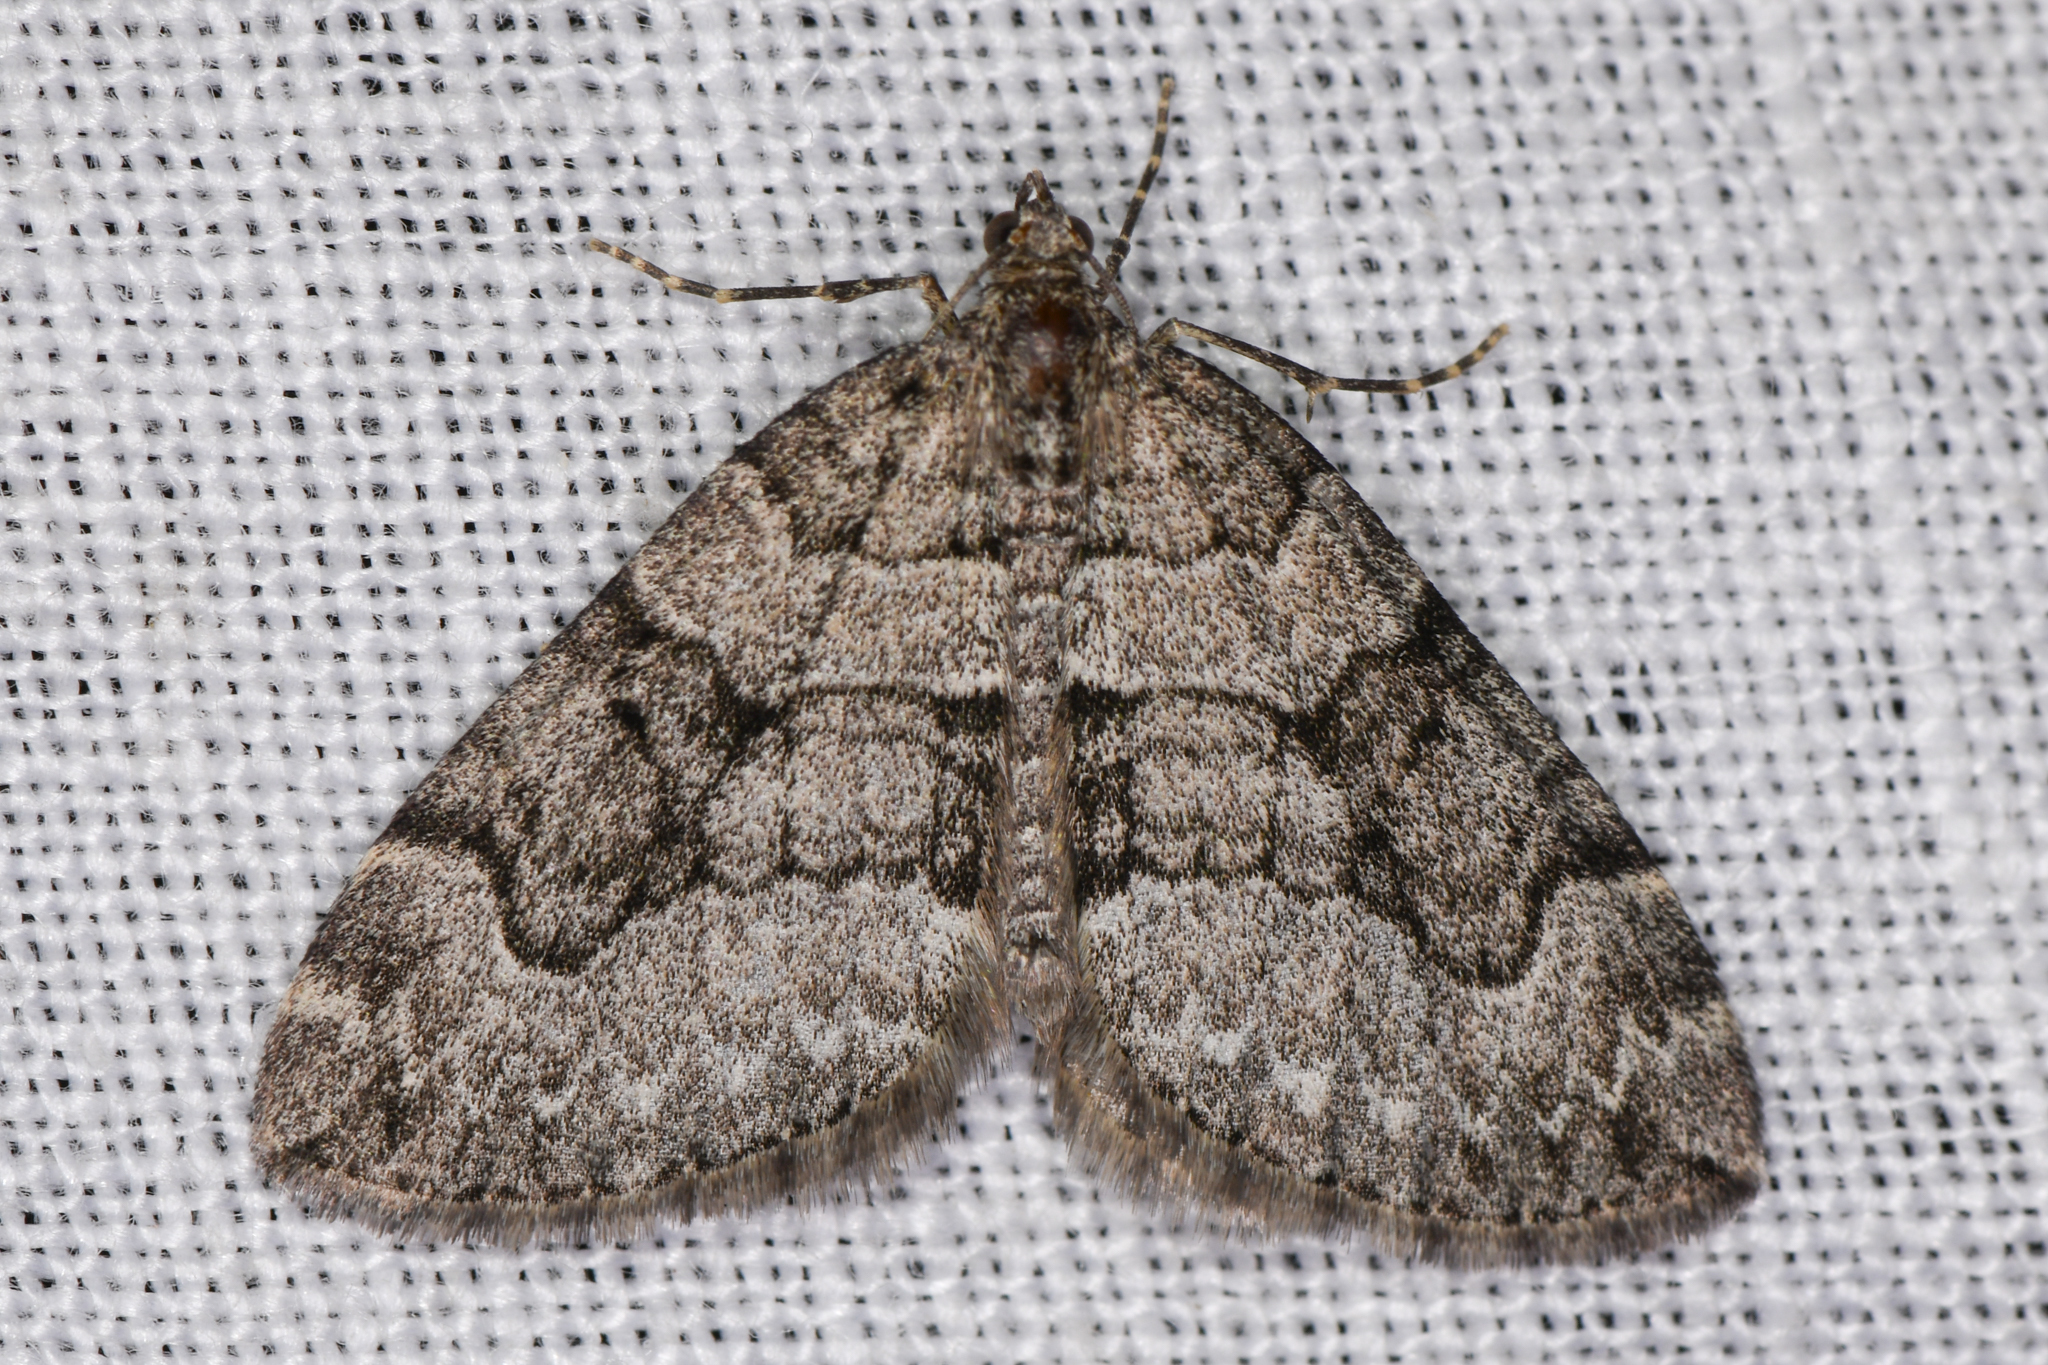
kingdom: Animalia
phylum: Arthropoda
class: Insecta
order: Lepidoptera
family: Geometridae
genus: Thera
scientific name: Thera otisi
